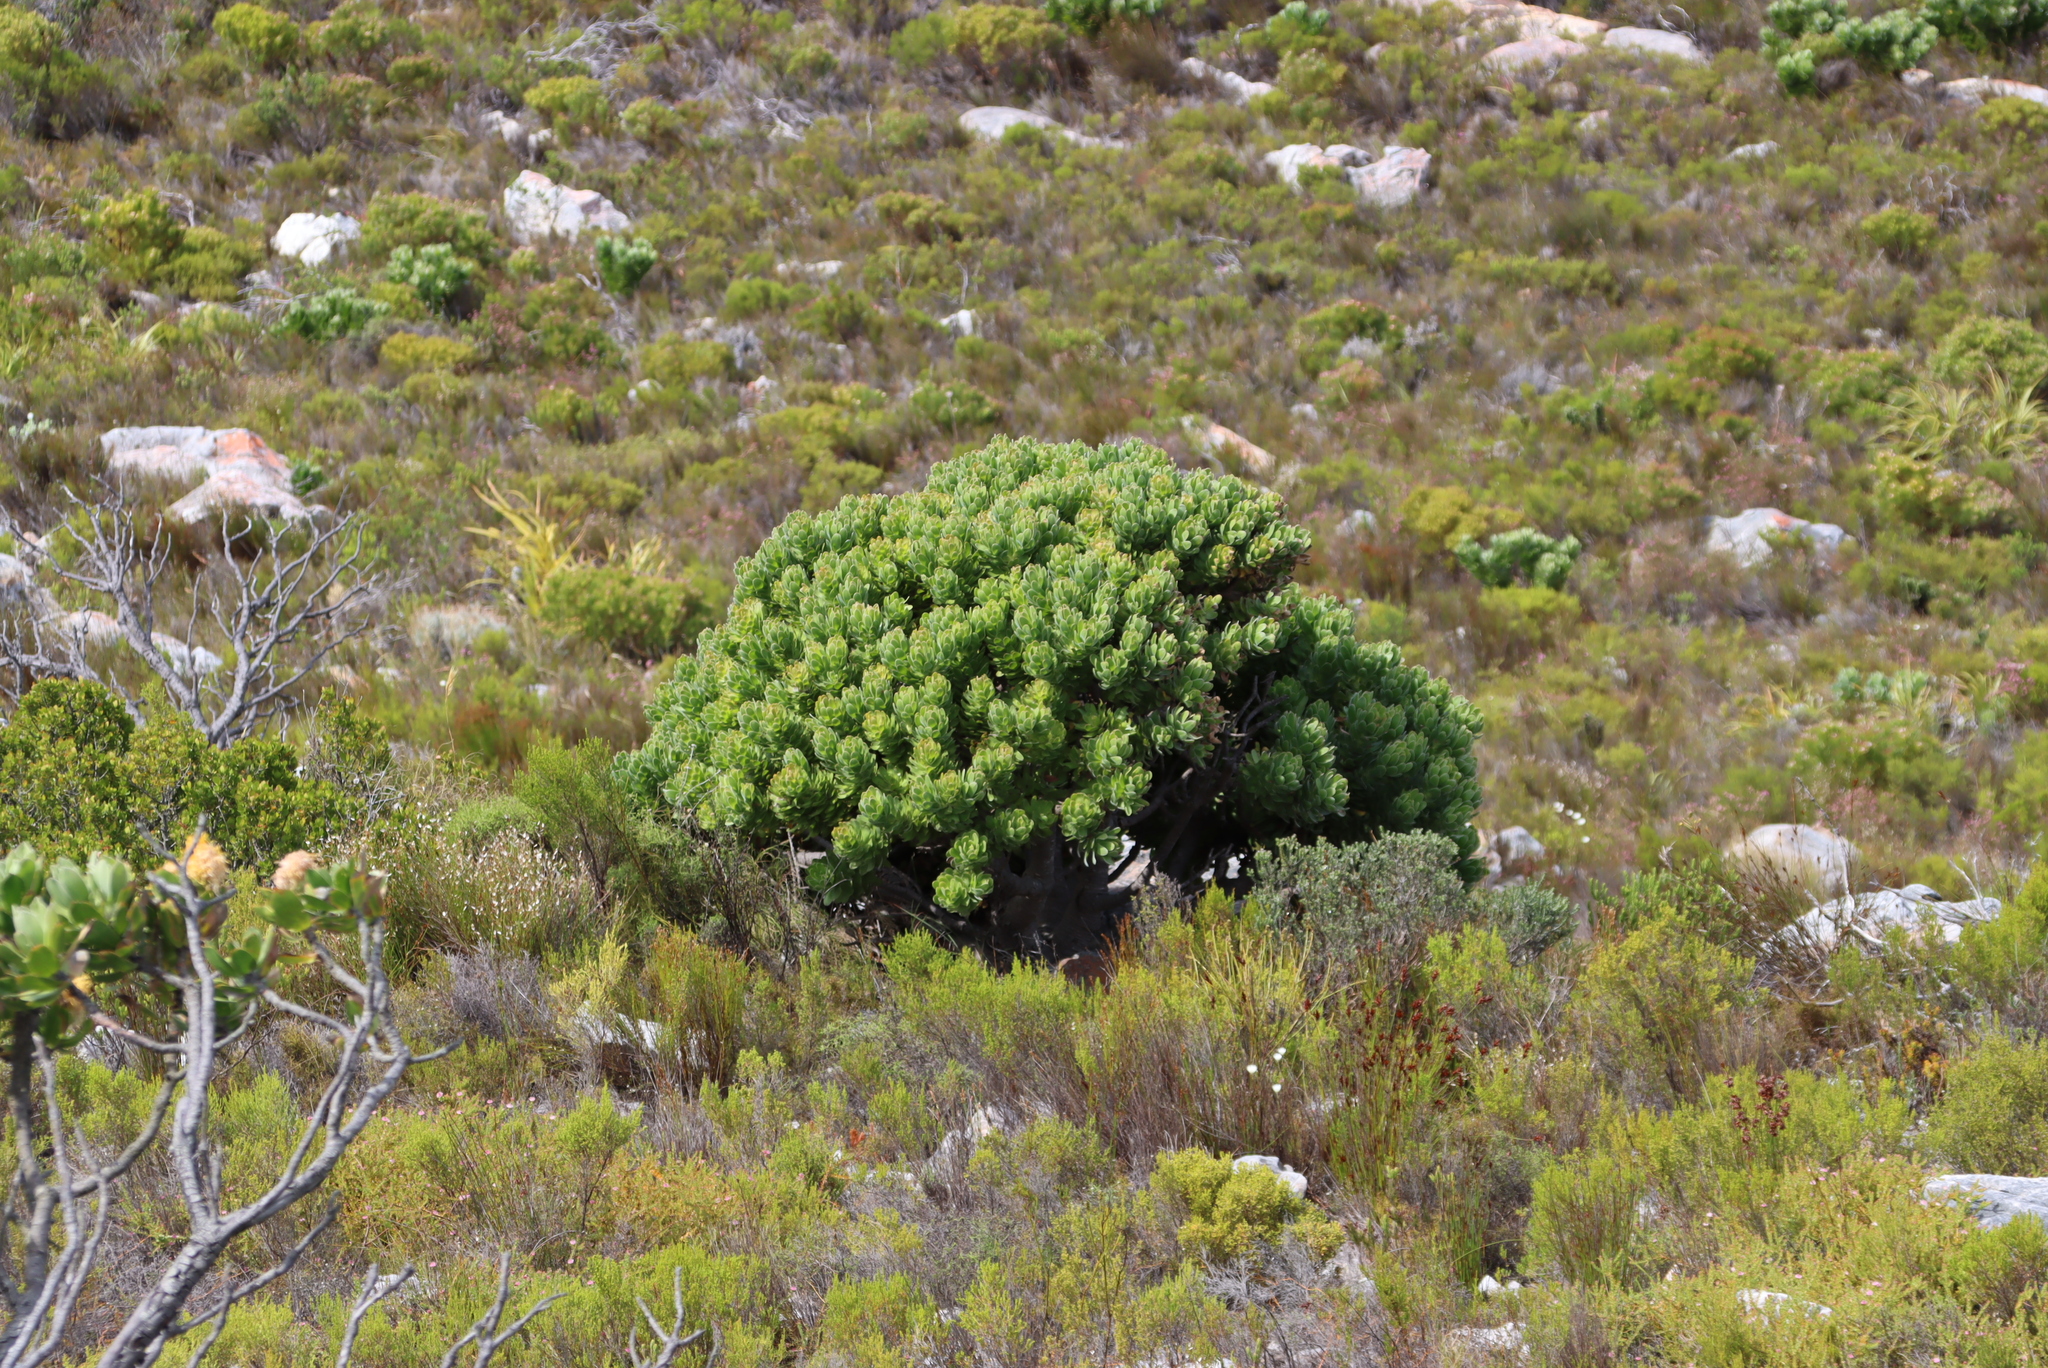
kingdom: Plantae
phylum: Tracheophyta
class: Magnoliopsida
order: Proteales
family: Proteaceae
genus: Mimetes
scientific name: Mimetes fimbriifolius
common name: Fringed bottlebrush
